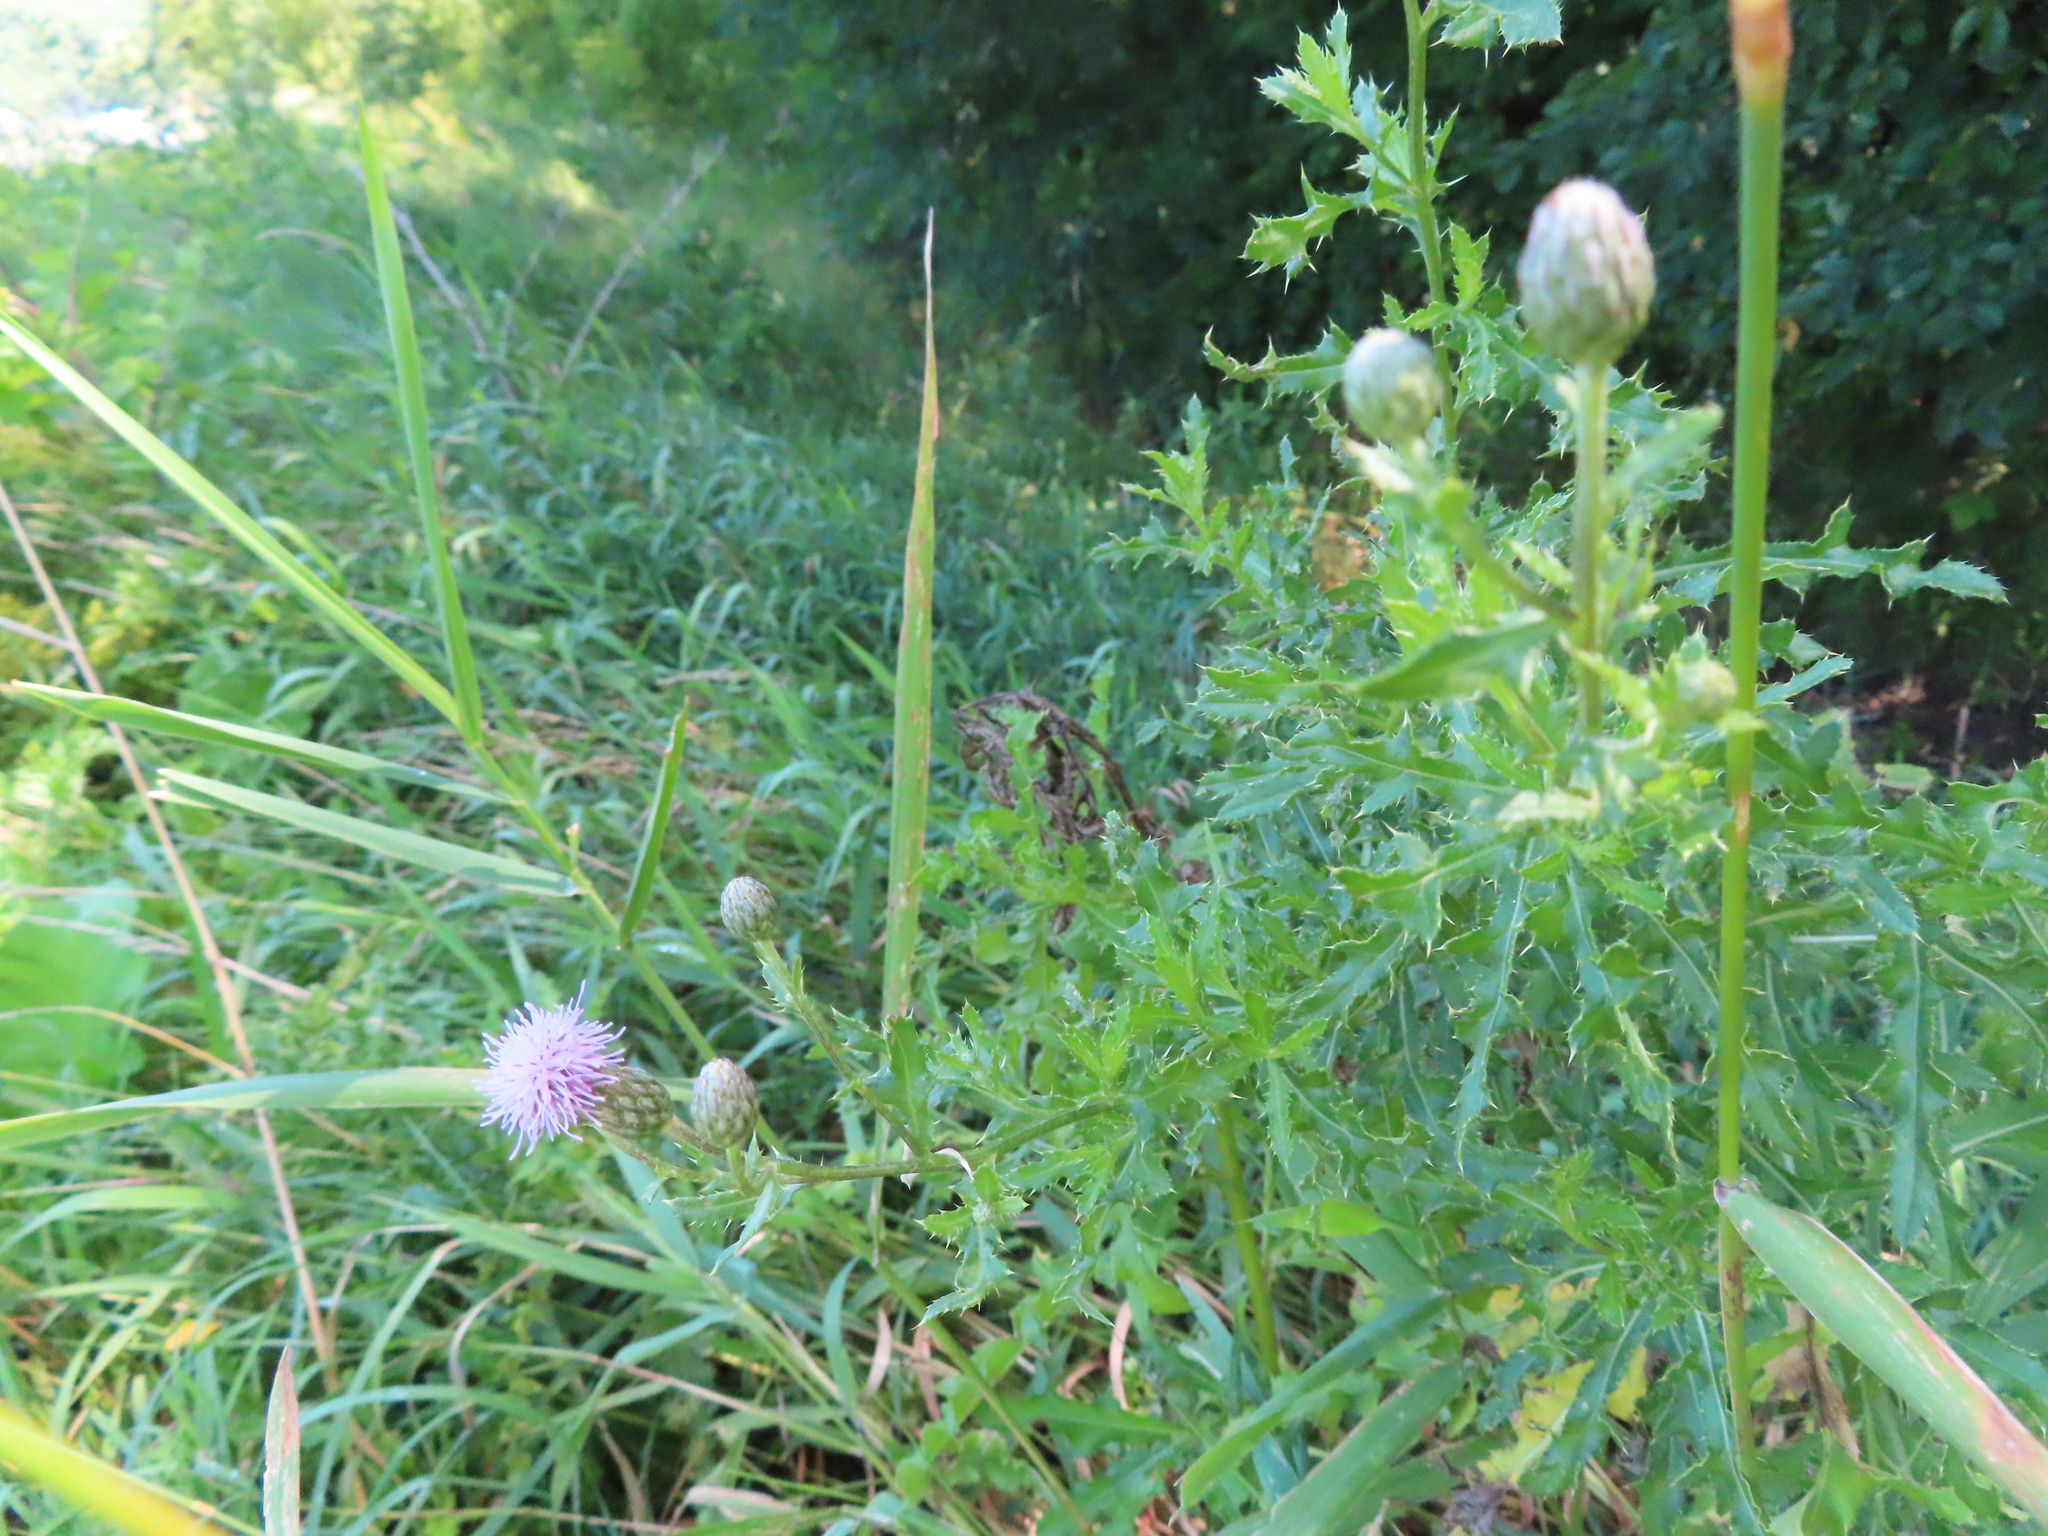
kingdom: Plantae
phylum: Tracheophyta
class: Magnoliopsida
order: Asterales
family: Asteraceae
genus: Cirsium
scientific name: Cirsium arvense
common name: Creeping thistle
